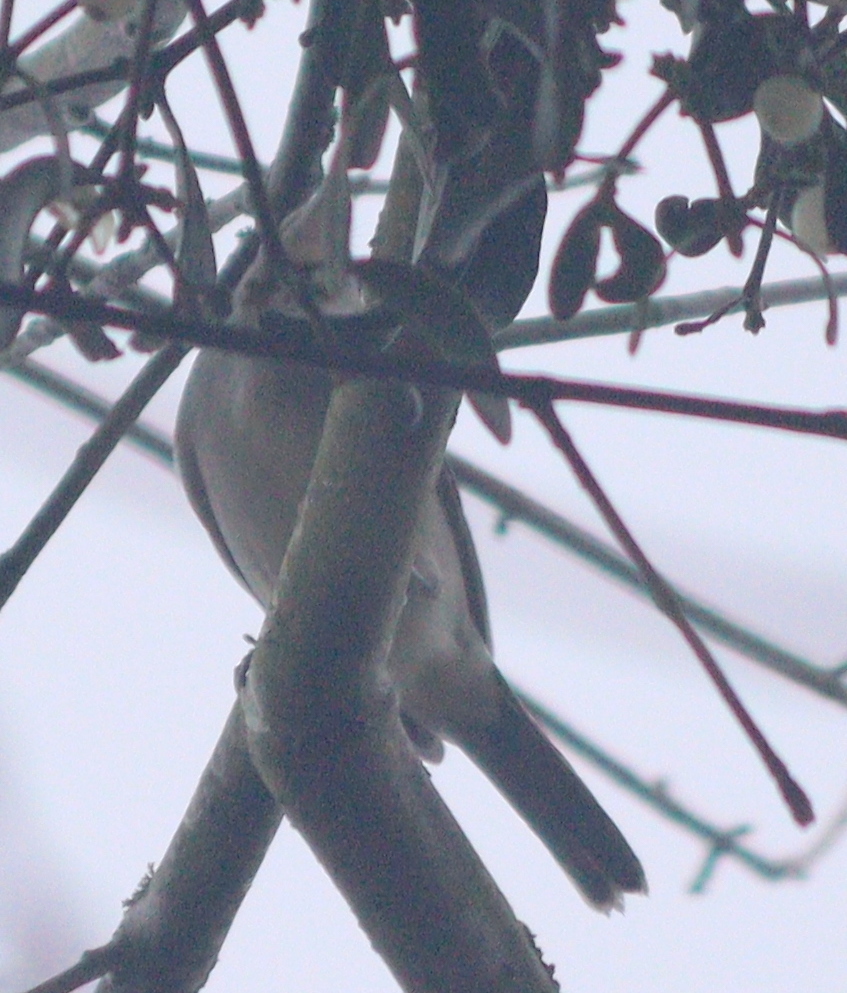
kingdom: Animalia
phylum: Chordata
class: Aves
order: Passeriformes
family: Sylviidae
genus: Sylvia
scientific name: Sylvia atricapilla
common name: Eurasian blackcap
